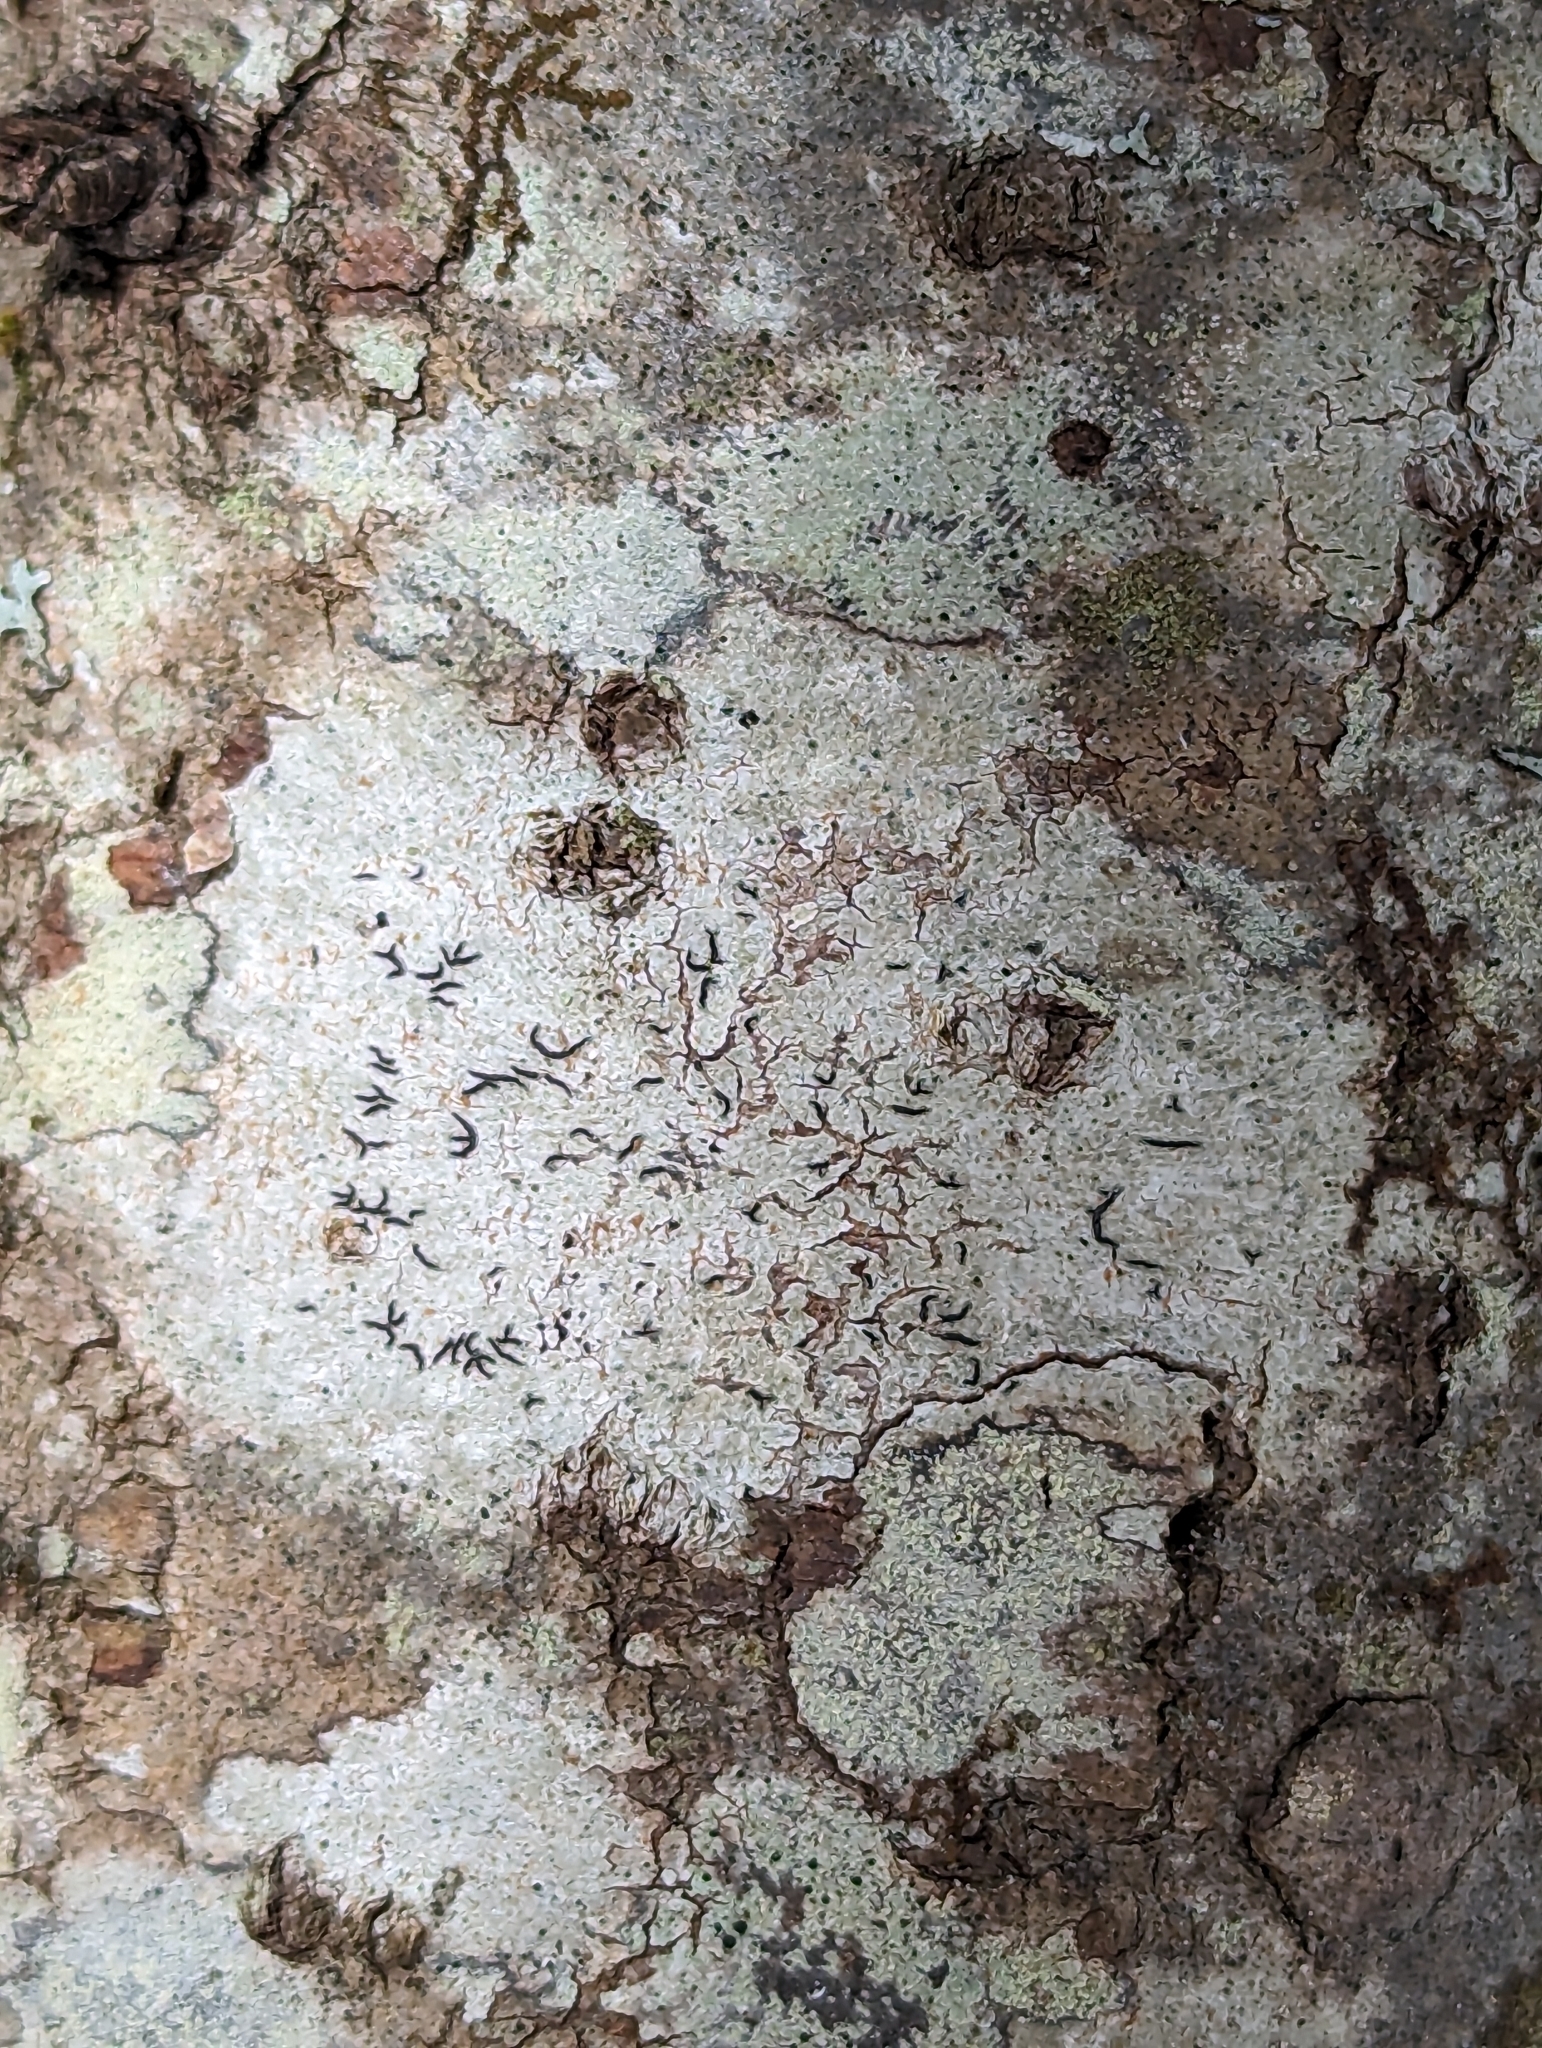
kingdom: Fungi
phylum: Ascomycota
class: Lecanoromycetes
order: Ostropales
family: Graphidaceae
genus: Graphis
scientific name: Graphis scripta
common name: Script lichen
